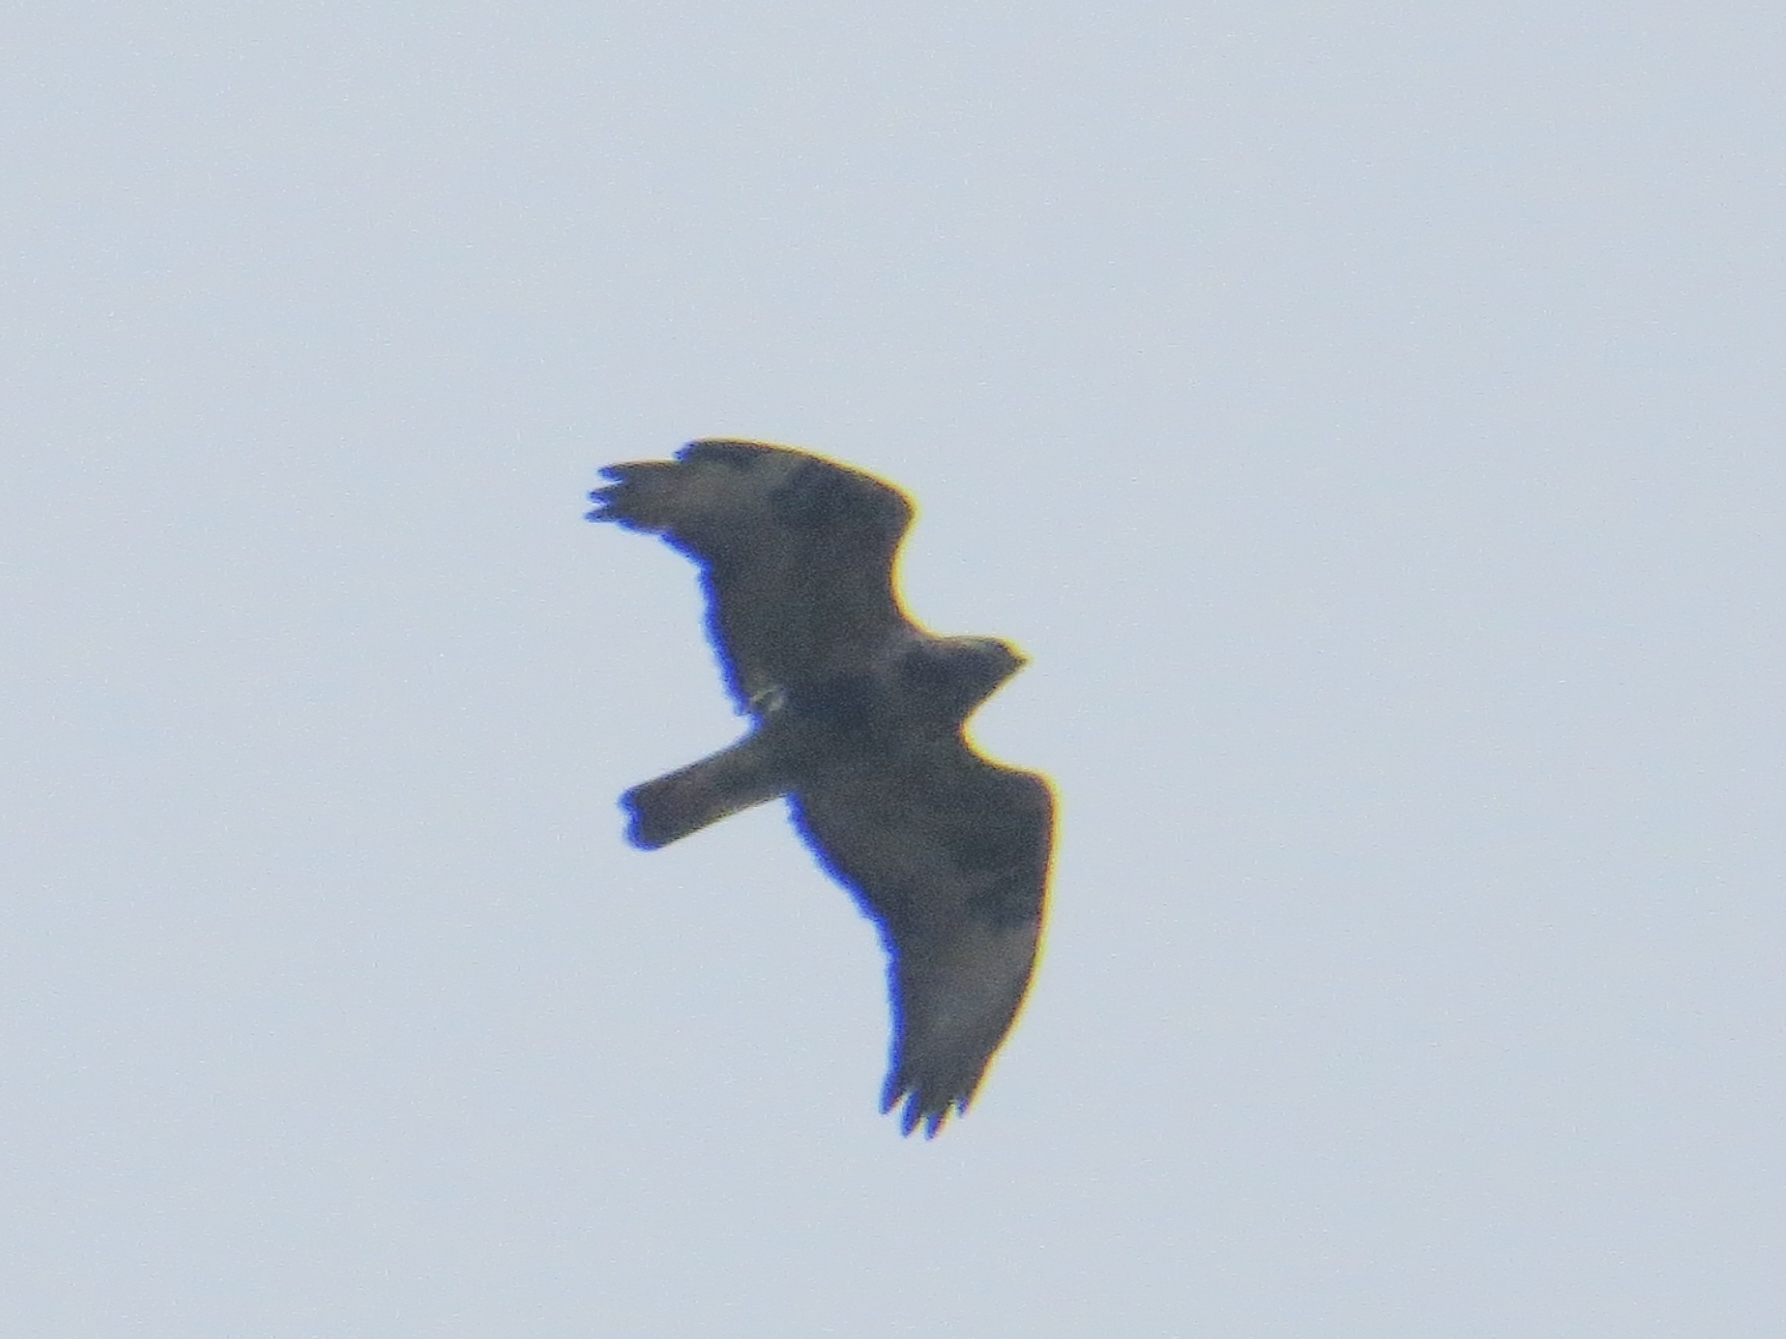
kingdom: Animalia
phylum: Chordata
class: Aves
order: Accipitriformes
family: Accipitridae
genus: Buteo
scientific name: Buteo lagopus
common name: Rough-legged buzzard
